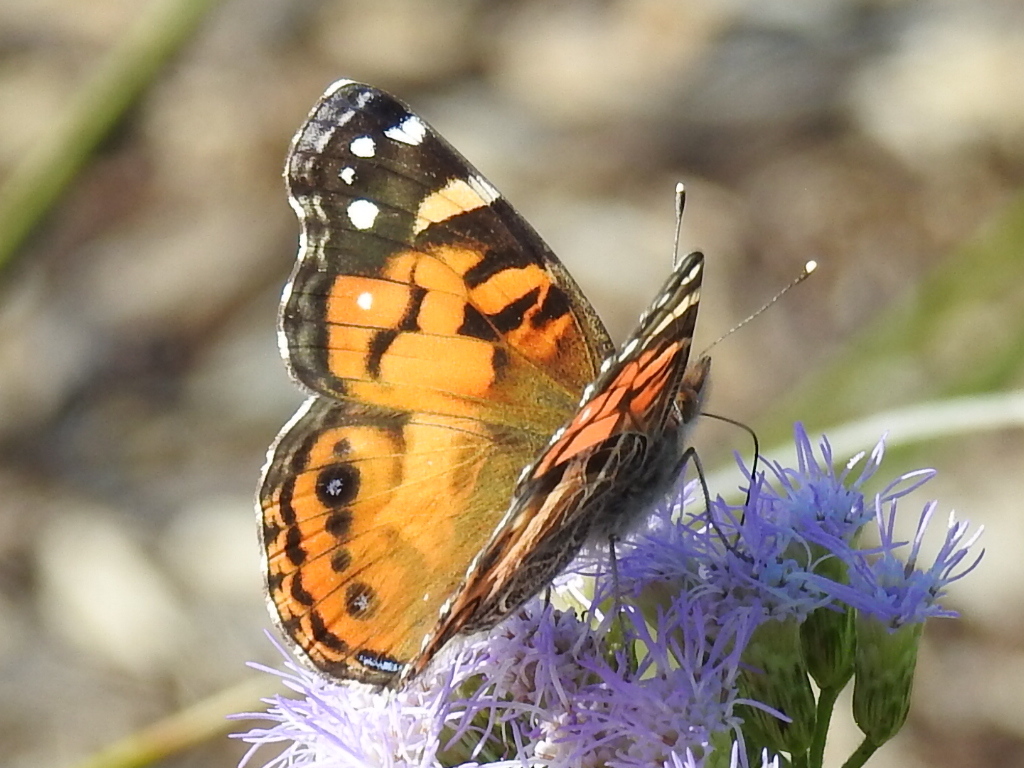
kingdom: Animalia
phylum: Arthropoda
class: Insecta
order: Lepidoptera
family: Nymphalidae
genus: Vanessa
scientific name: Vanessa virginiensis
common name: American lady
